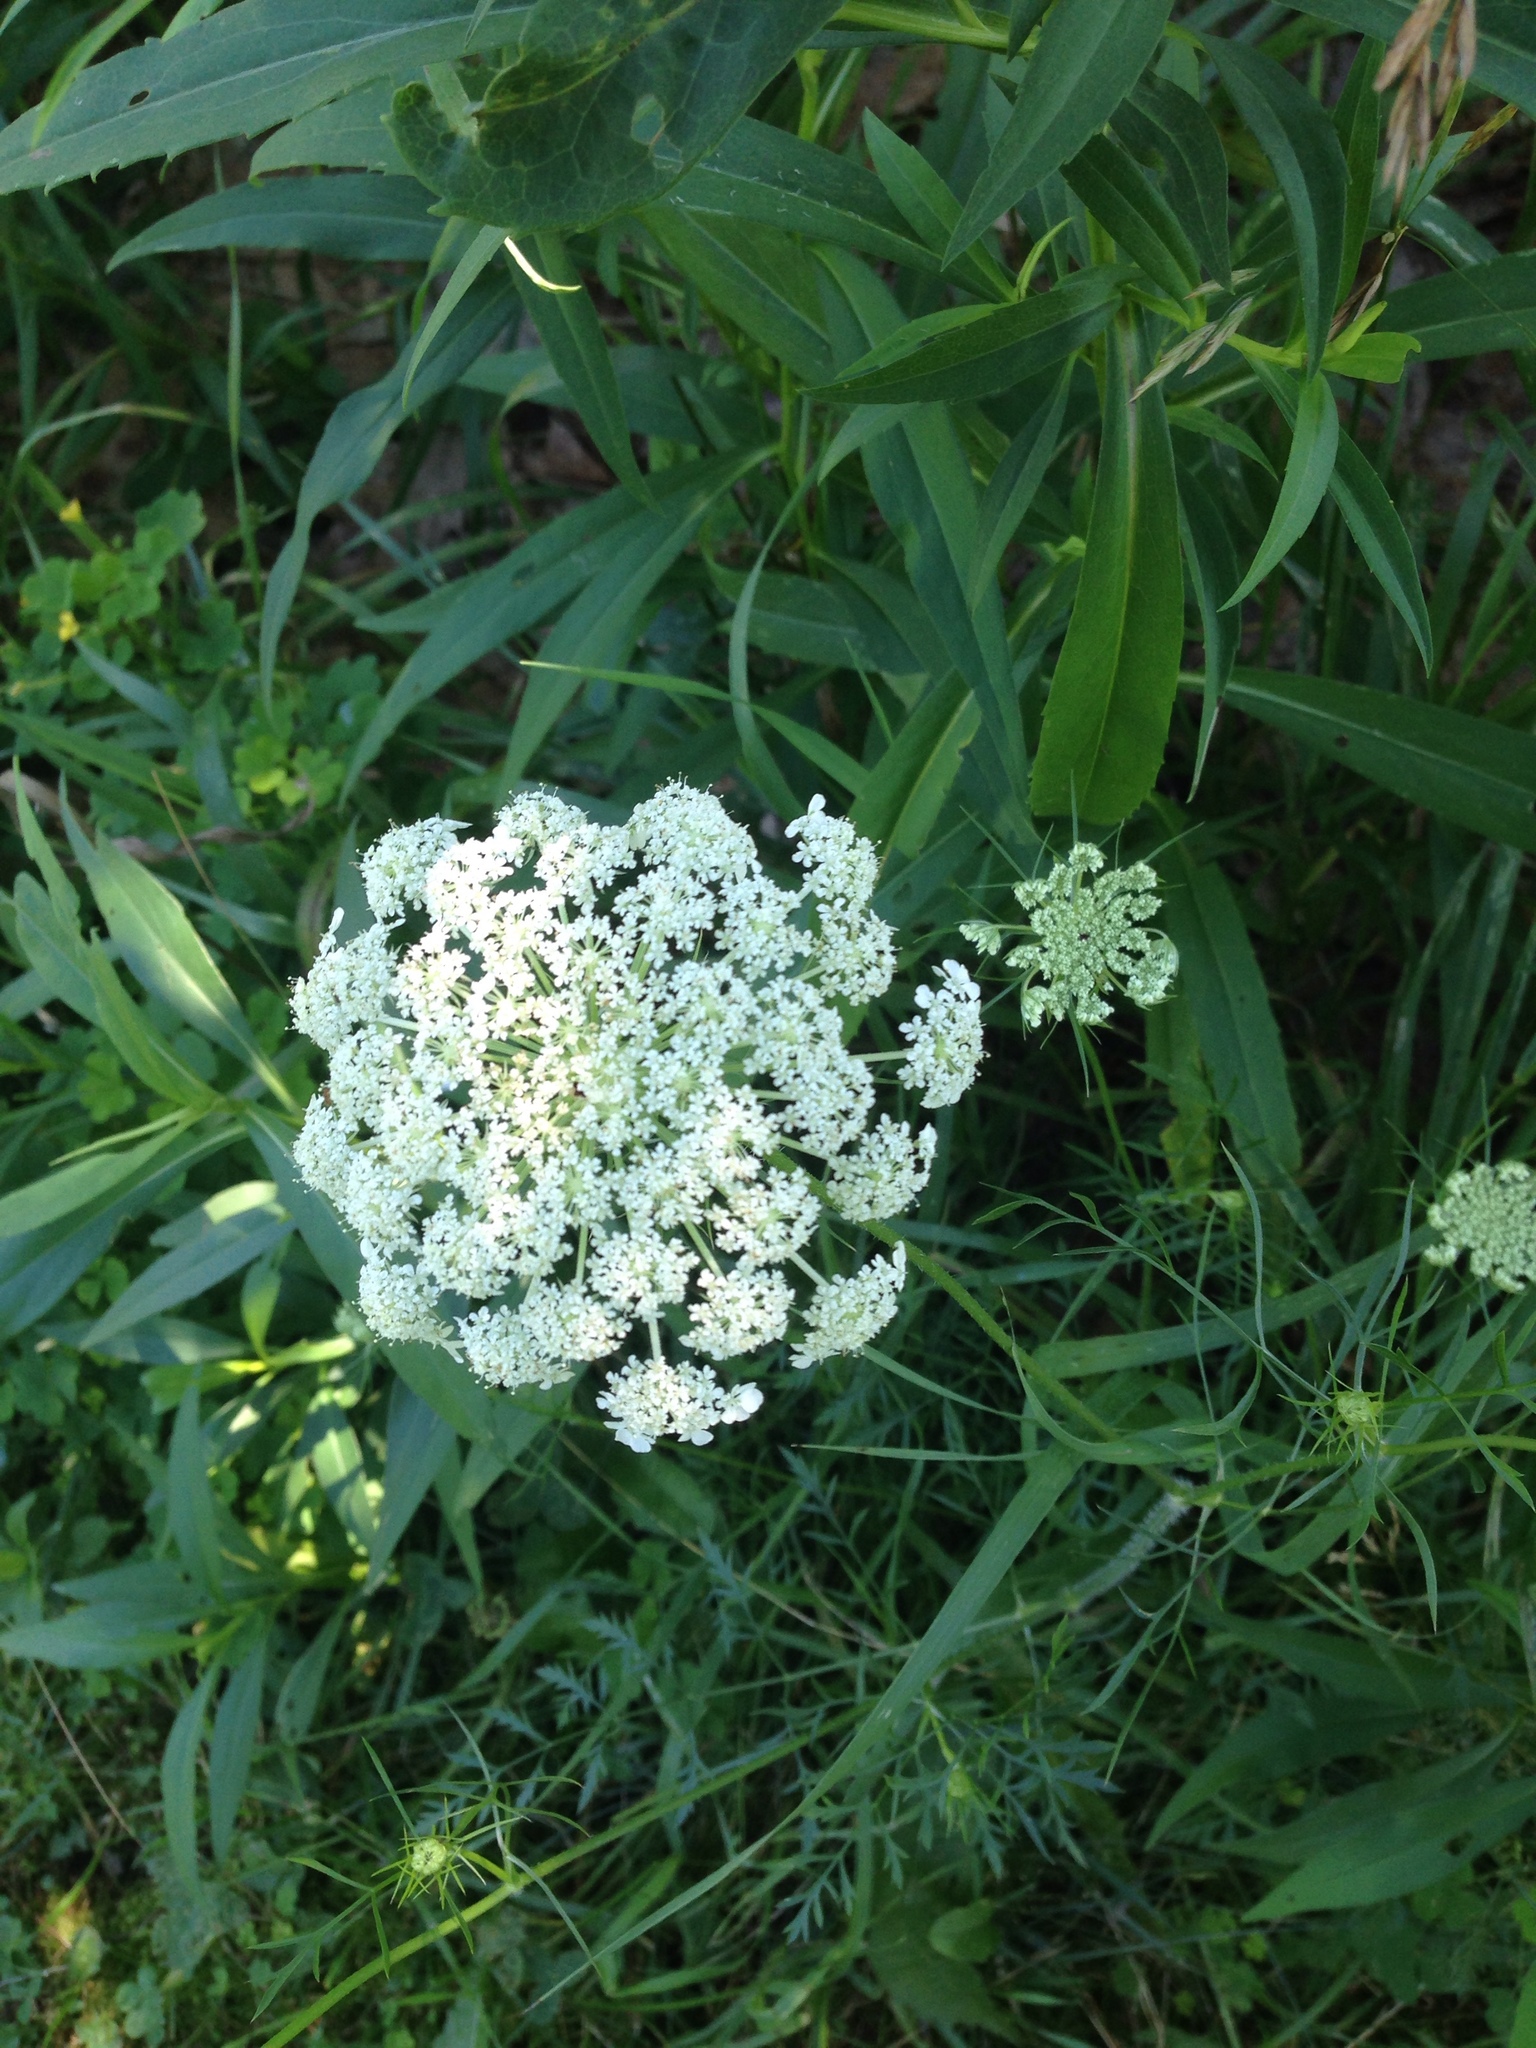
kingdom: Plantae
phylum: Tracheophyta
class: Magnoliopsida
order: Apiales
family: Apiaceae
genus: Daucus
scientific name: Daucus carota
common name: Wild carrot
